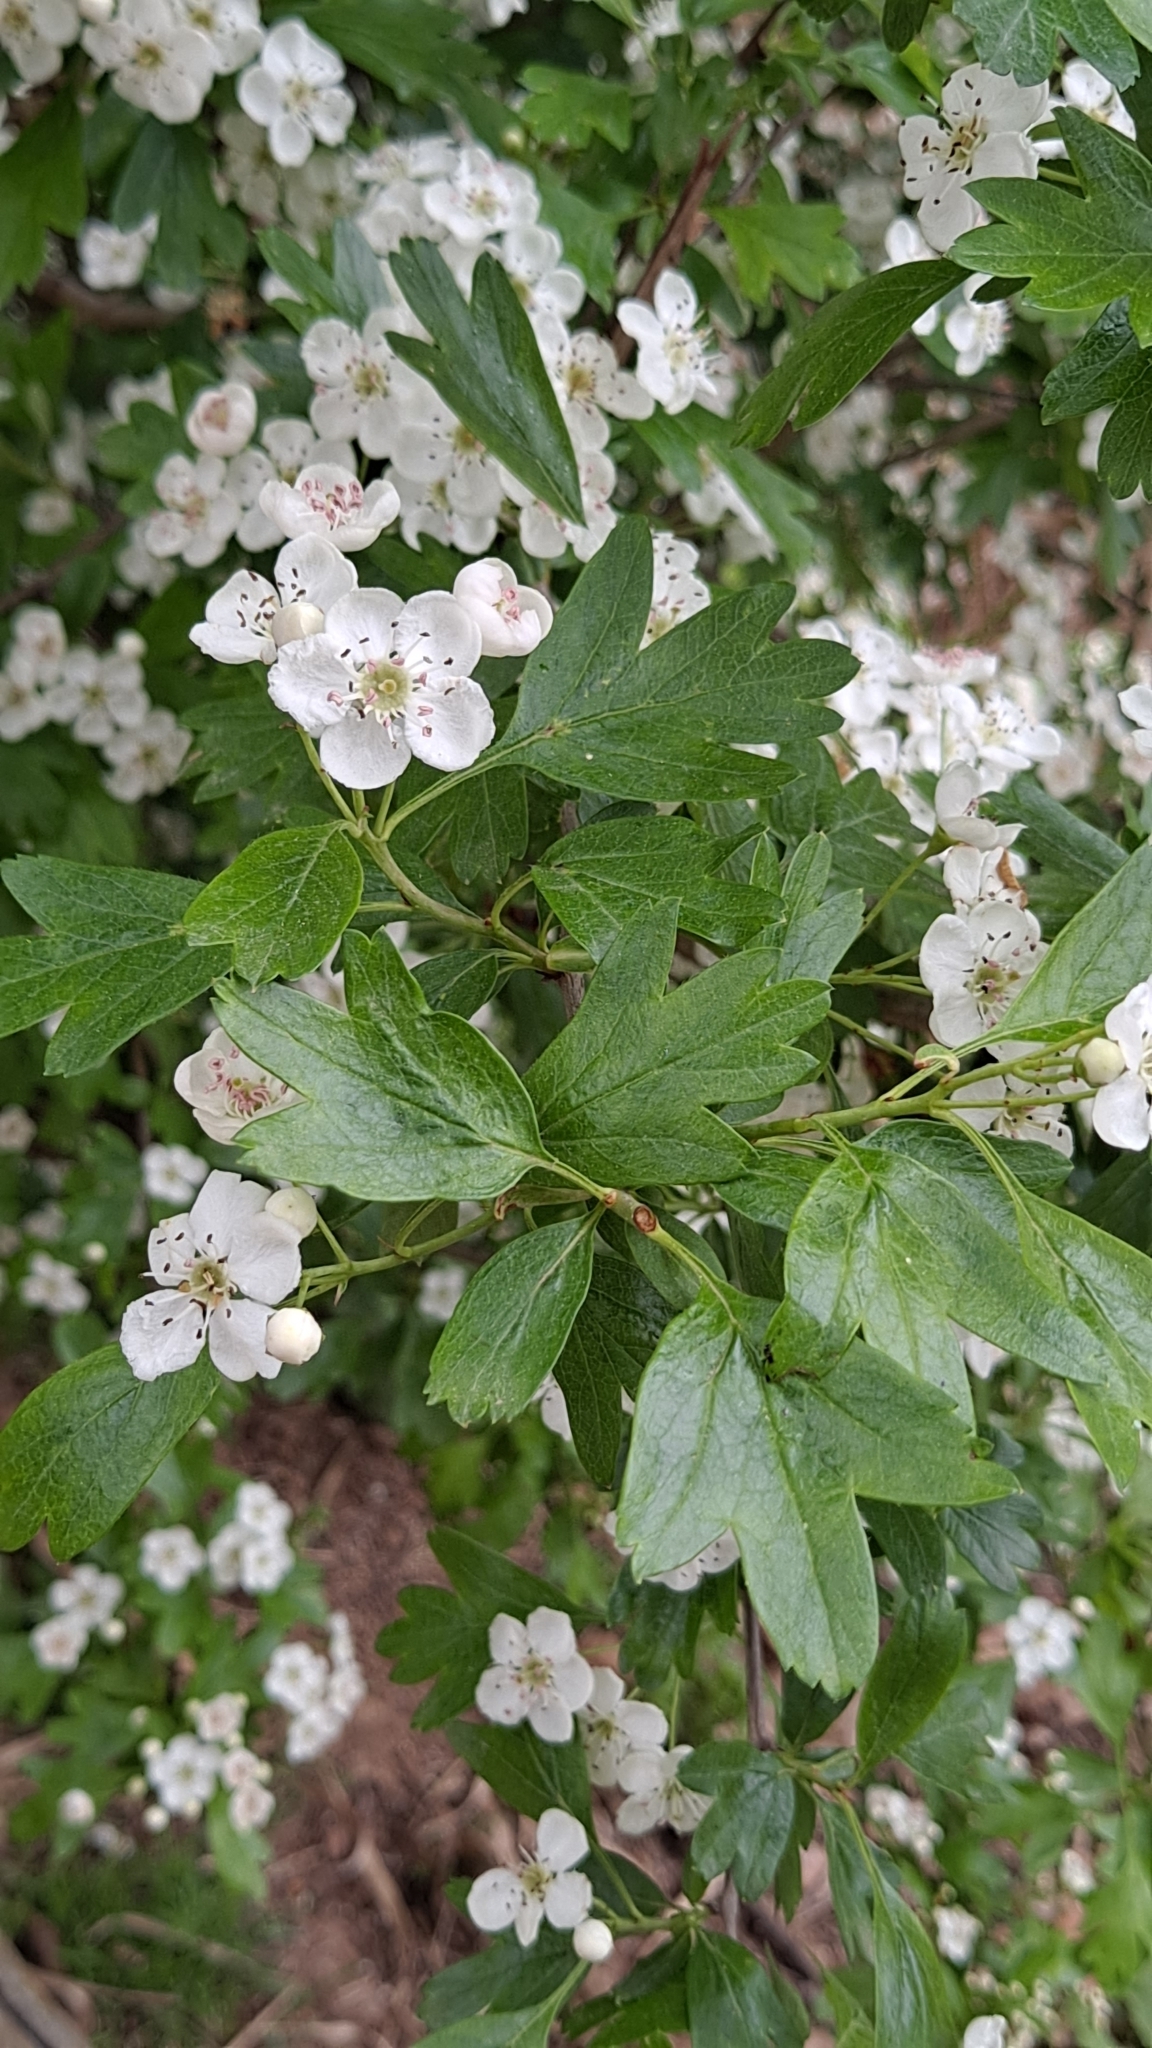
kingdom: Plantae
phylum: Tracheophyta
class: Magnoliopsida
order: Rosales
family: Rosaceae
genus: Crataegus
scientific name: Crataegus monogyna
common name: Hawthorn
